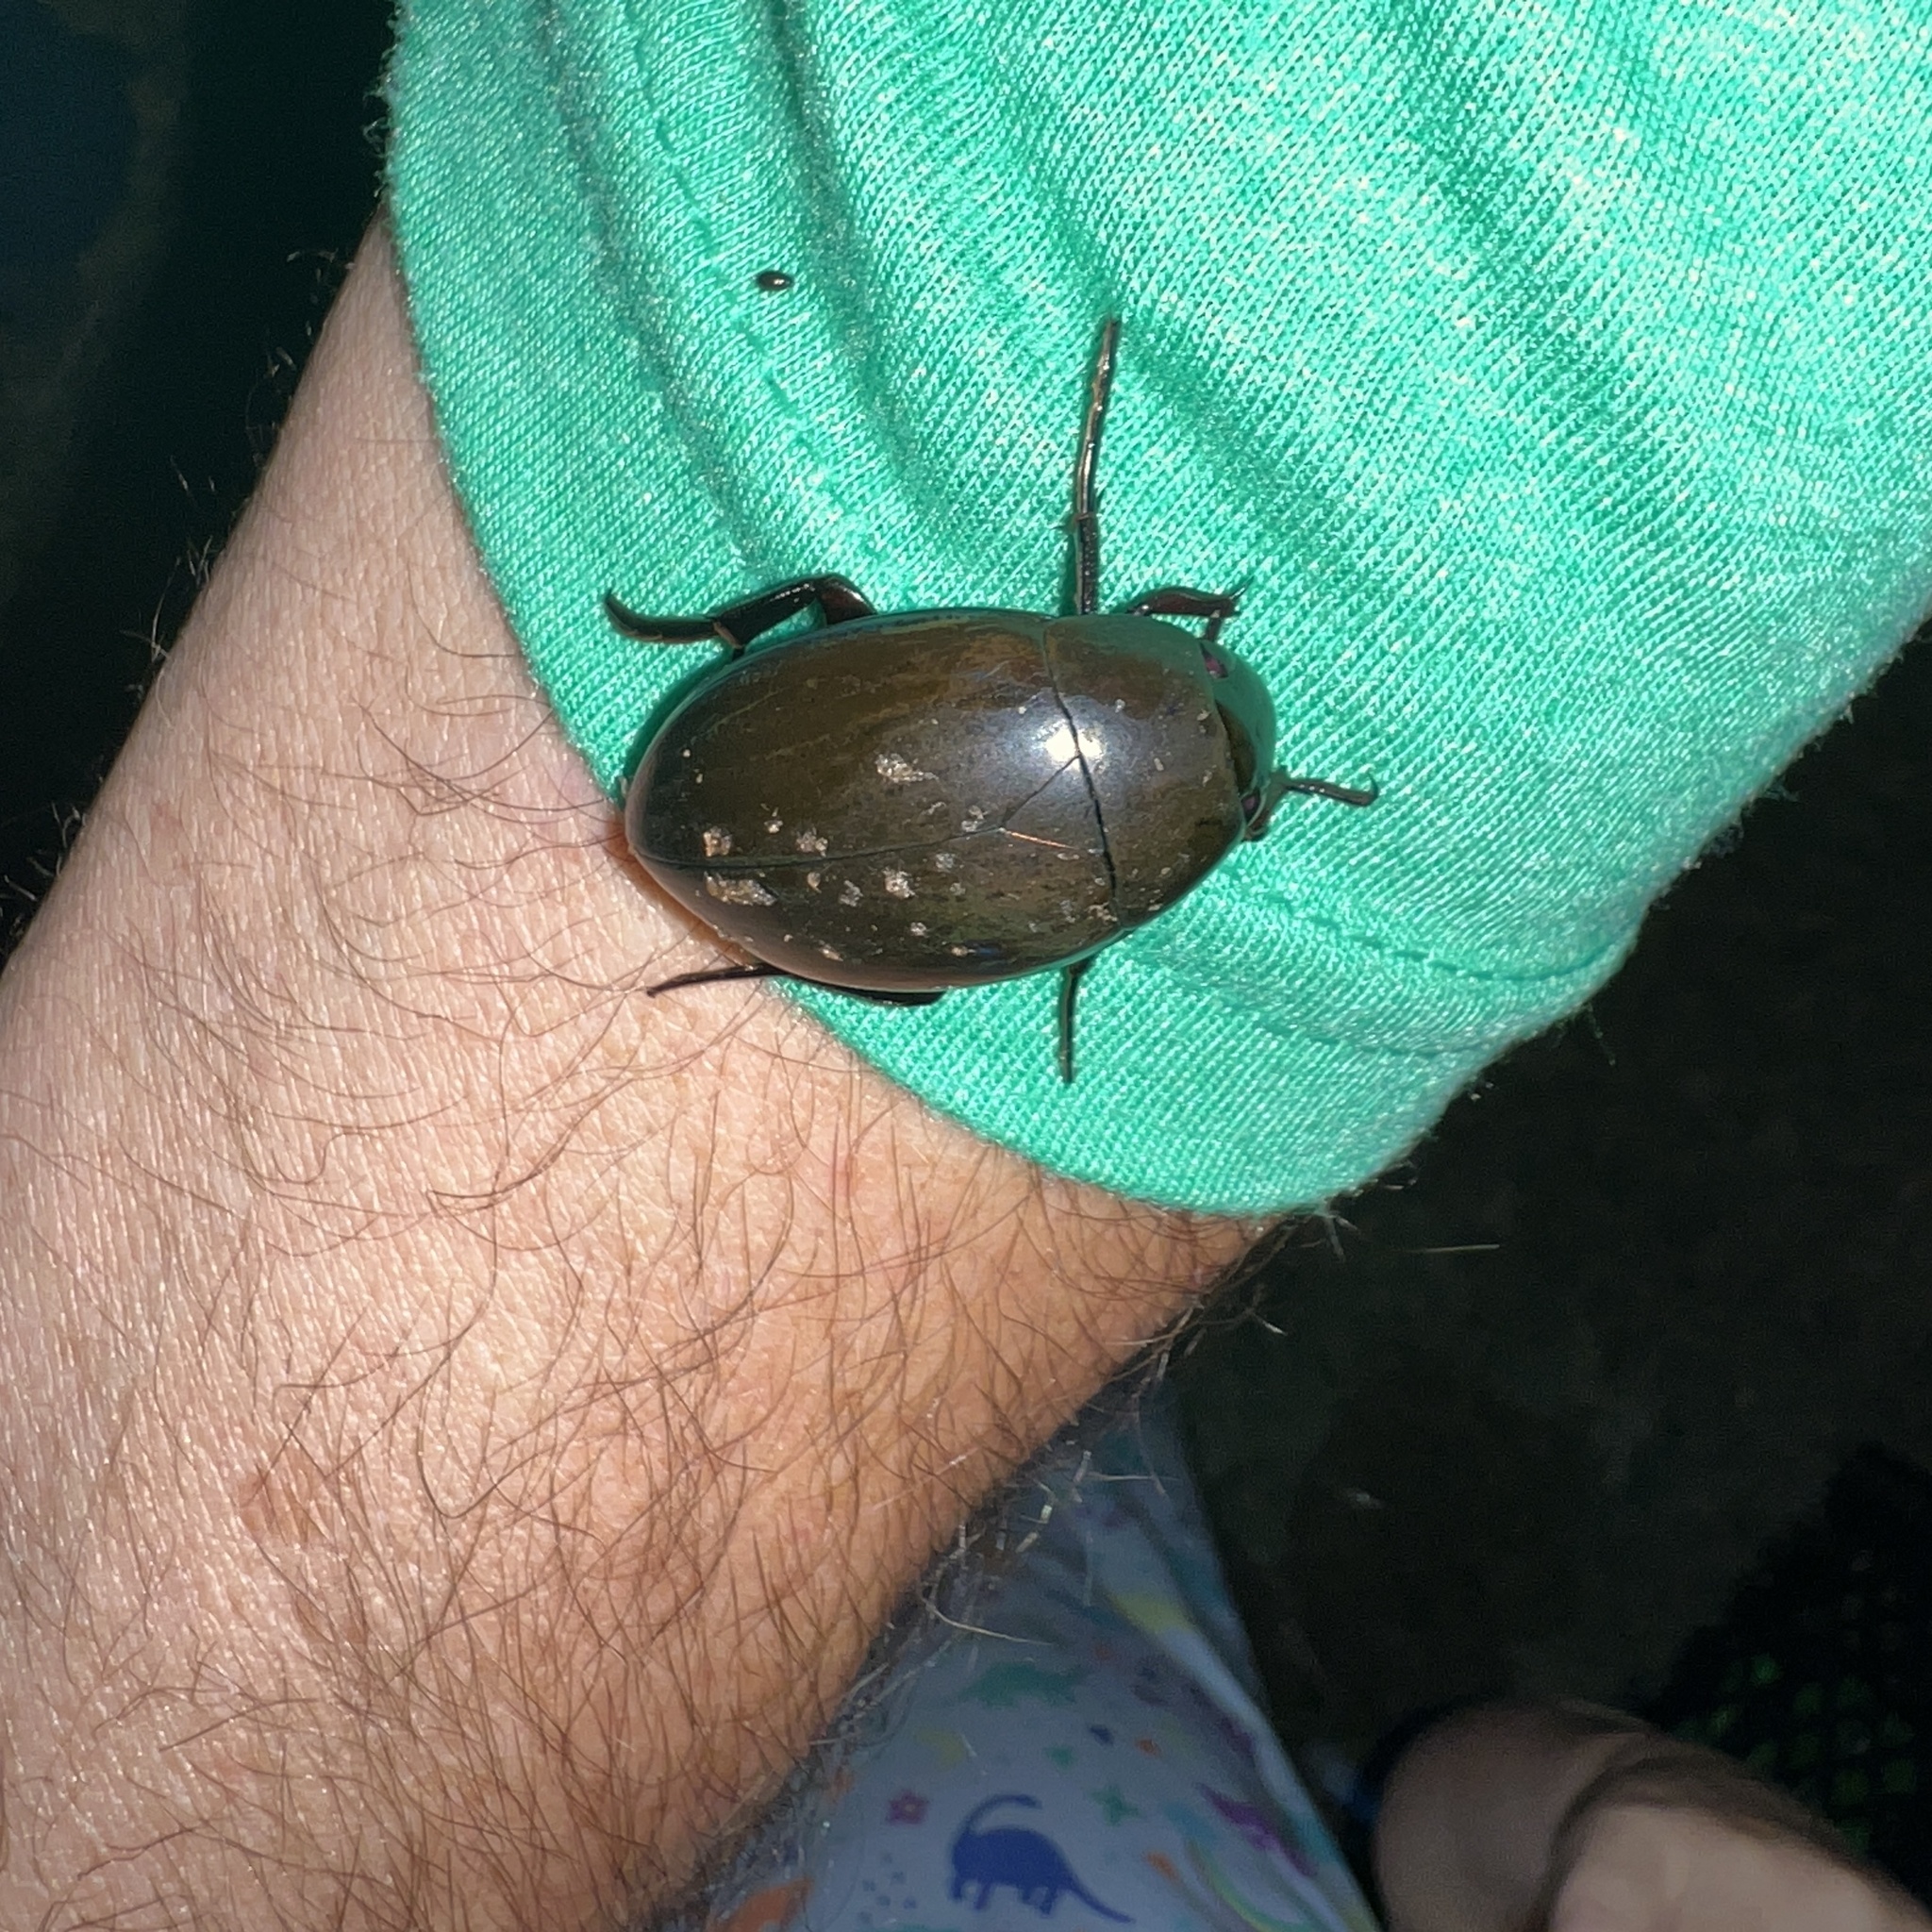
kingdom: Animalia
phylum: Arthropoda
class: Insecta
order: Coleoptera
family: Hydrophilidae
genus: Hydrophilus
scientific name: Hydrophilus ovatus
